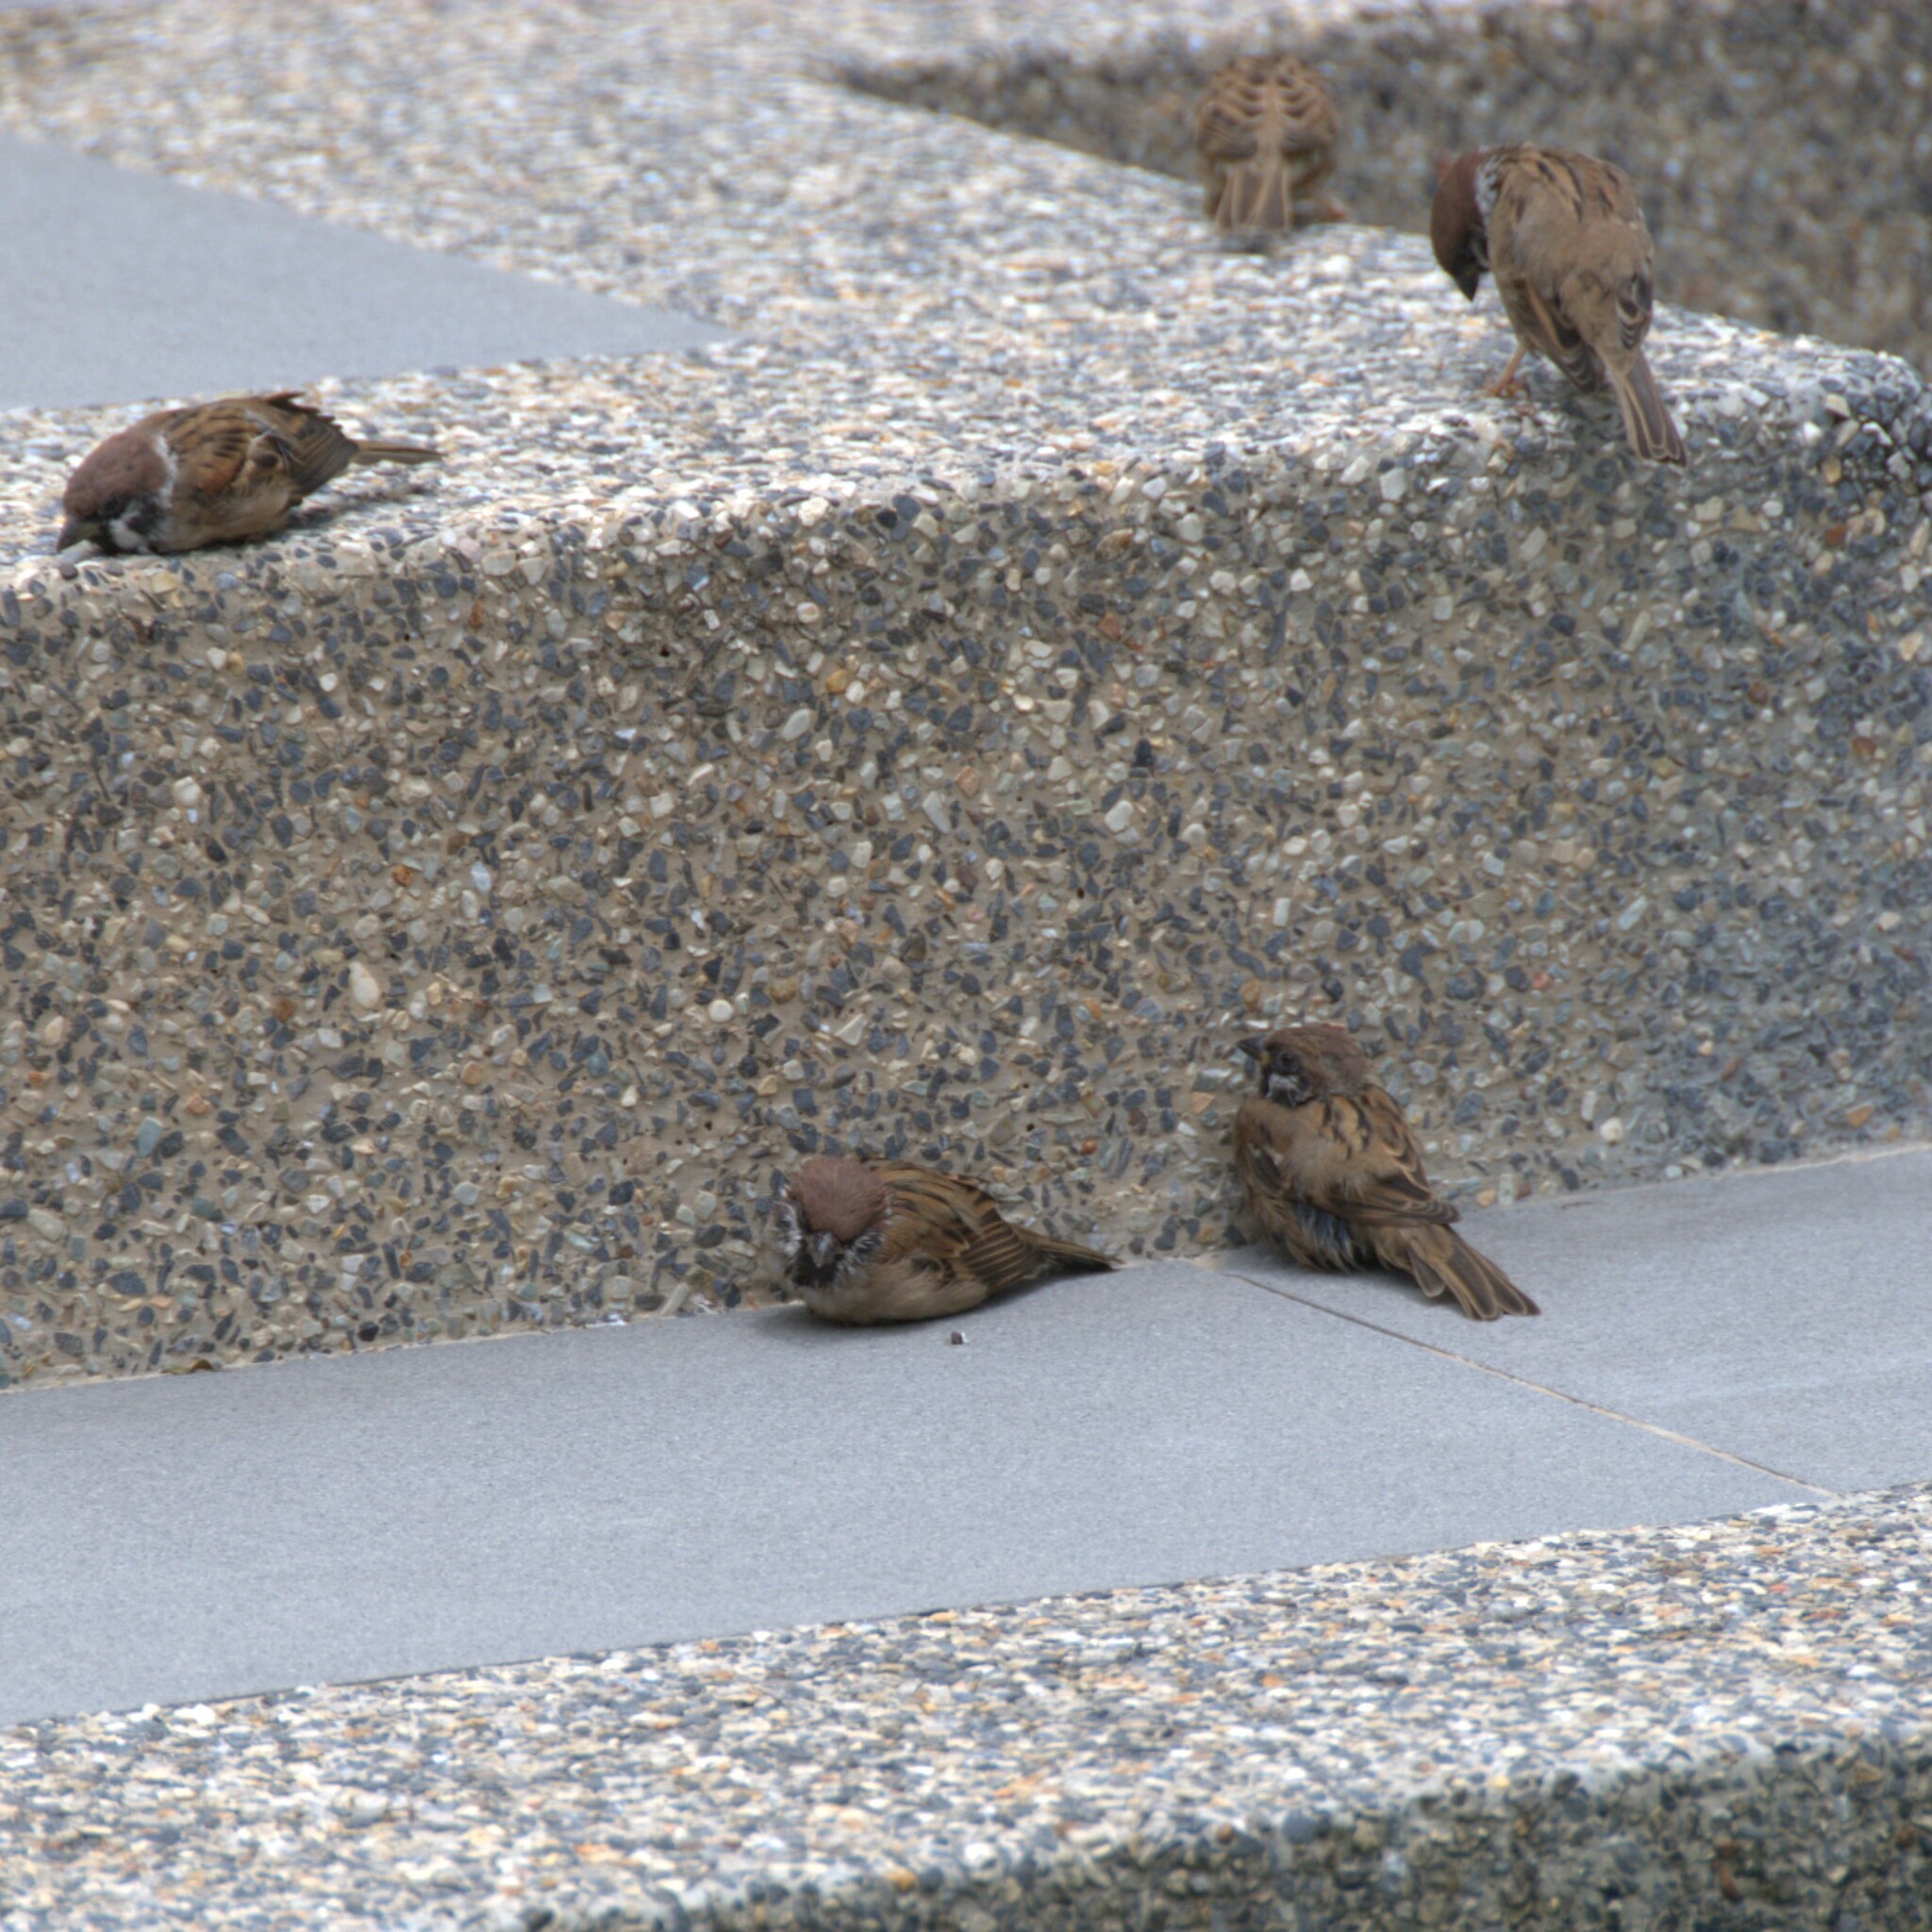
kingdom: Animalia
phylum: Chordata
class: Aves
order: Passeriformes
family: Passeridae
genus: Passer
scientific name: Passer montanus
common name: Eurasian tree sparrow
